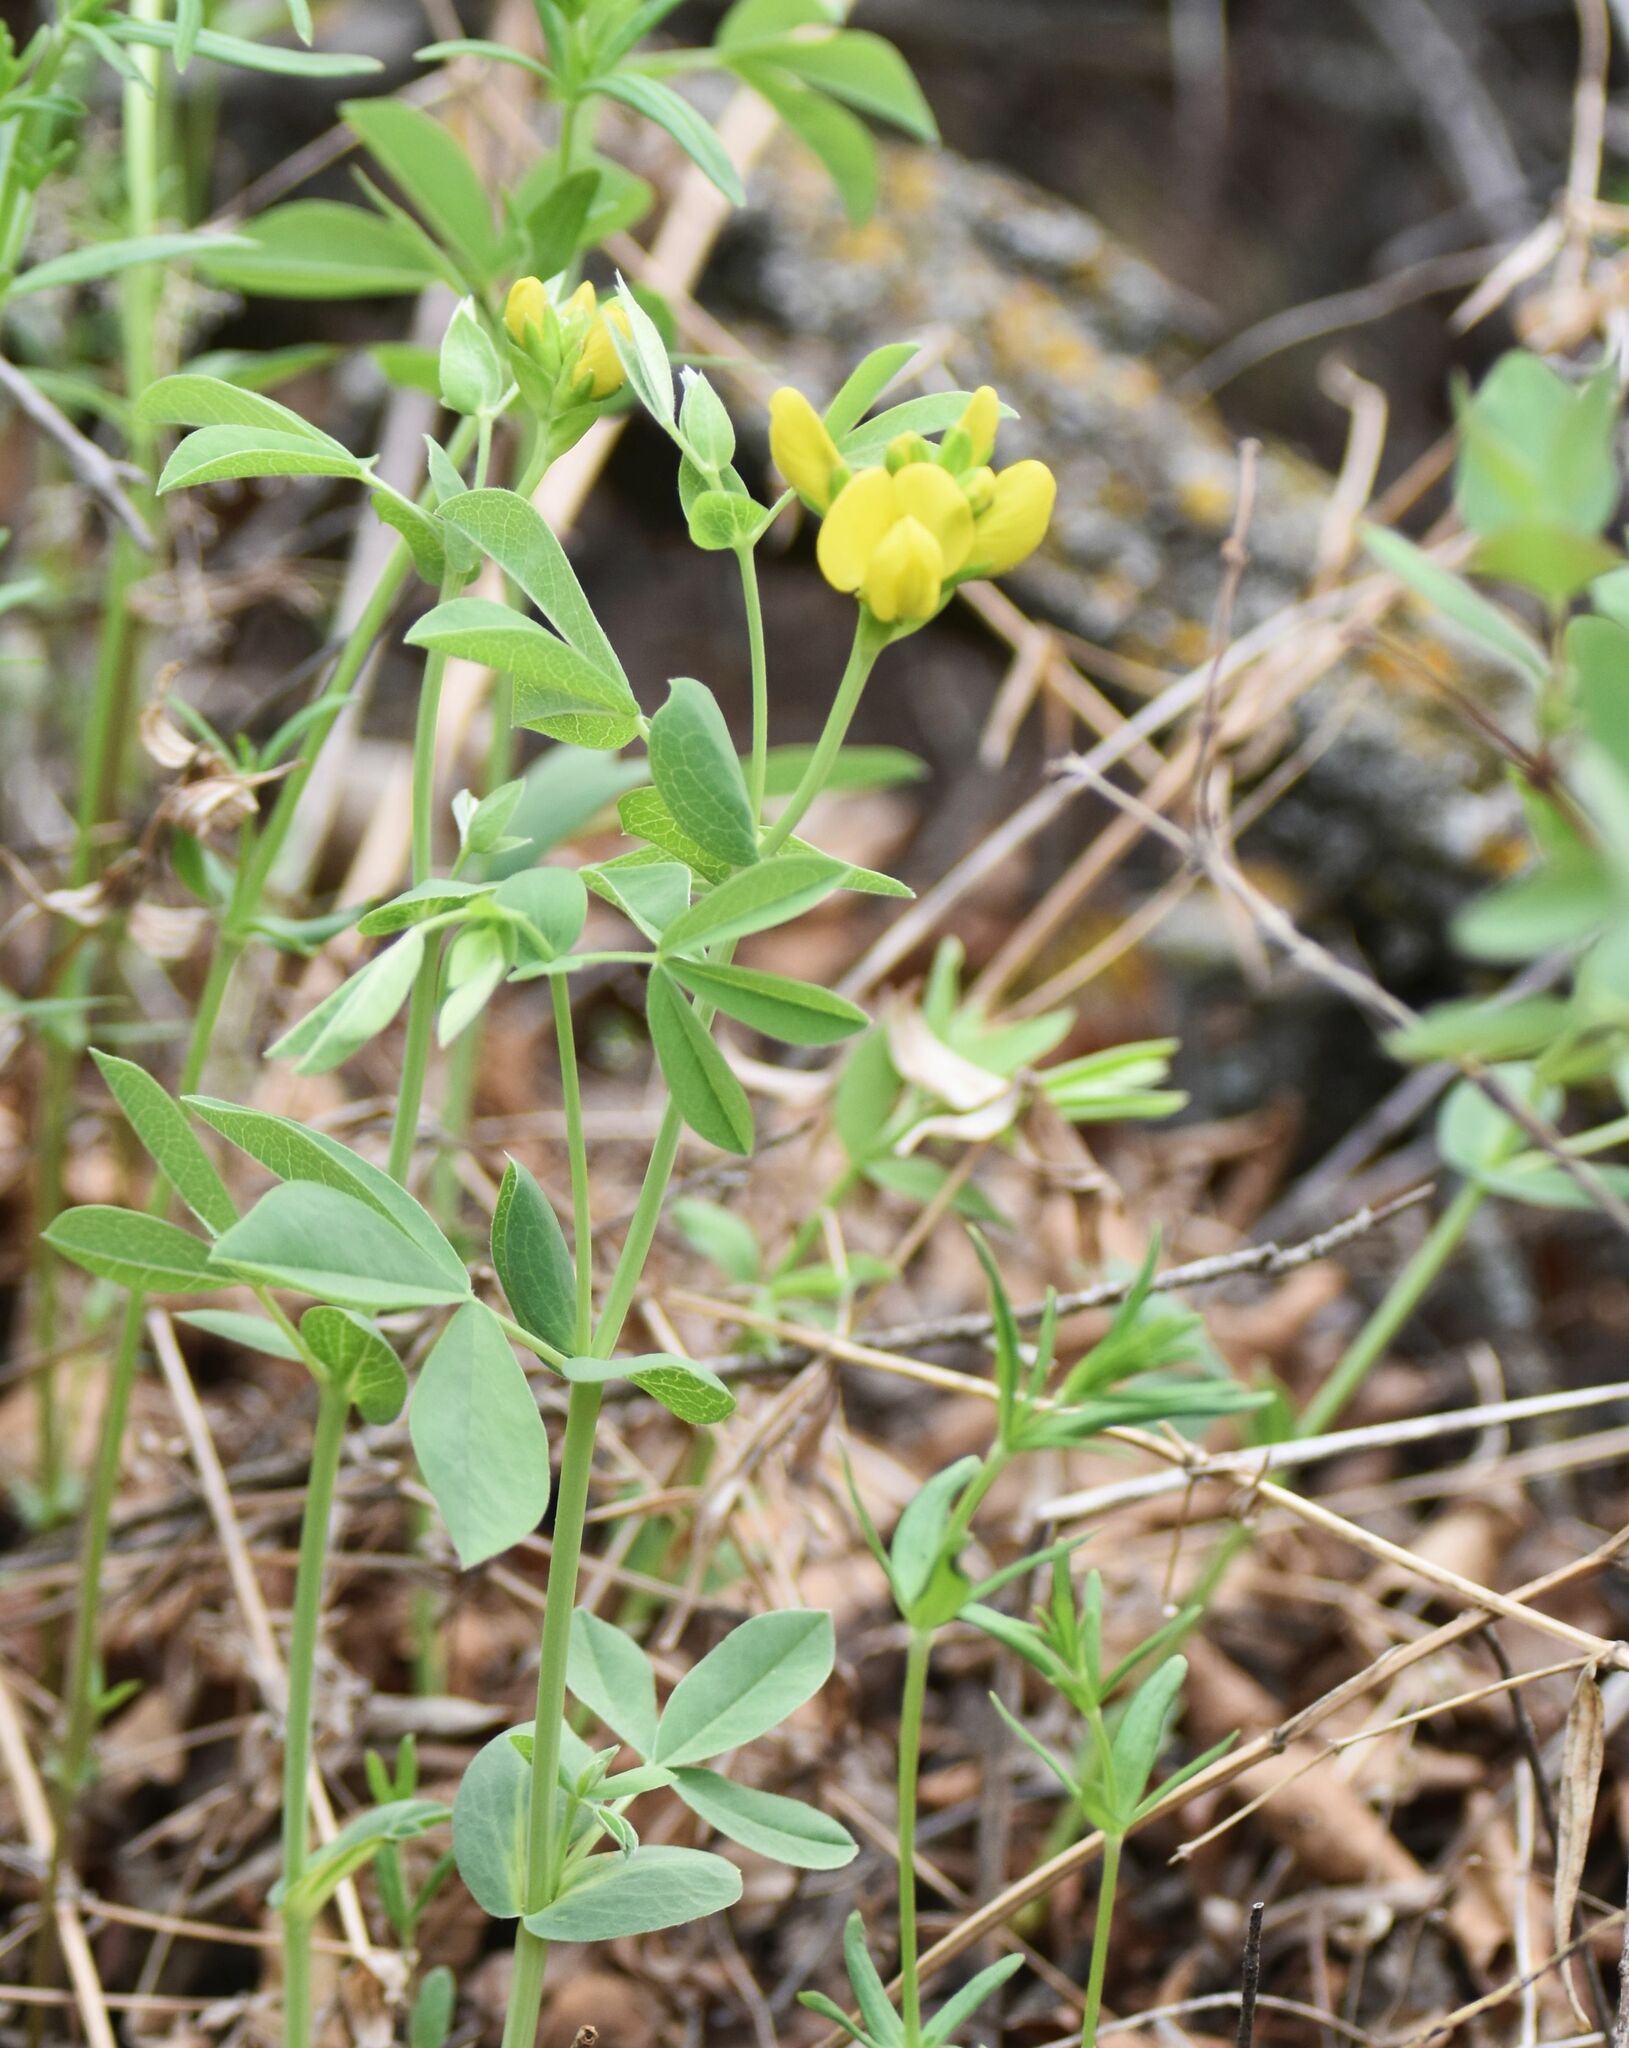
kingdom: Plantae
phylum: Tracheophyta
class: Magnoliopsida
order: Fabales
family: Fabaceae
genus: Thermopsis
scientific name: Thermopsis rhombifolia
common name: Circle-pod-pea
